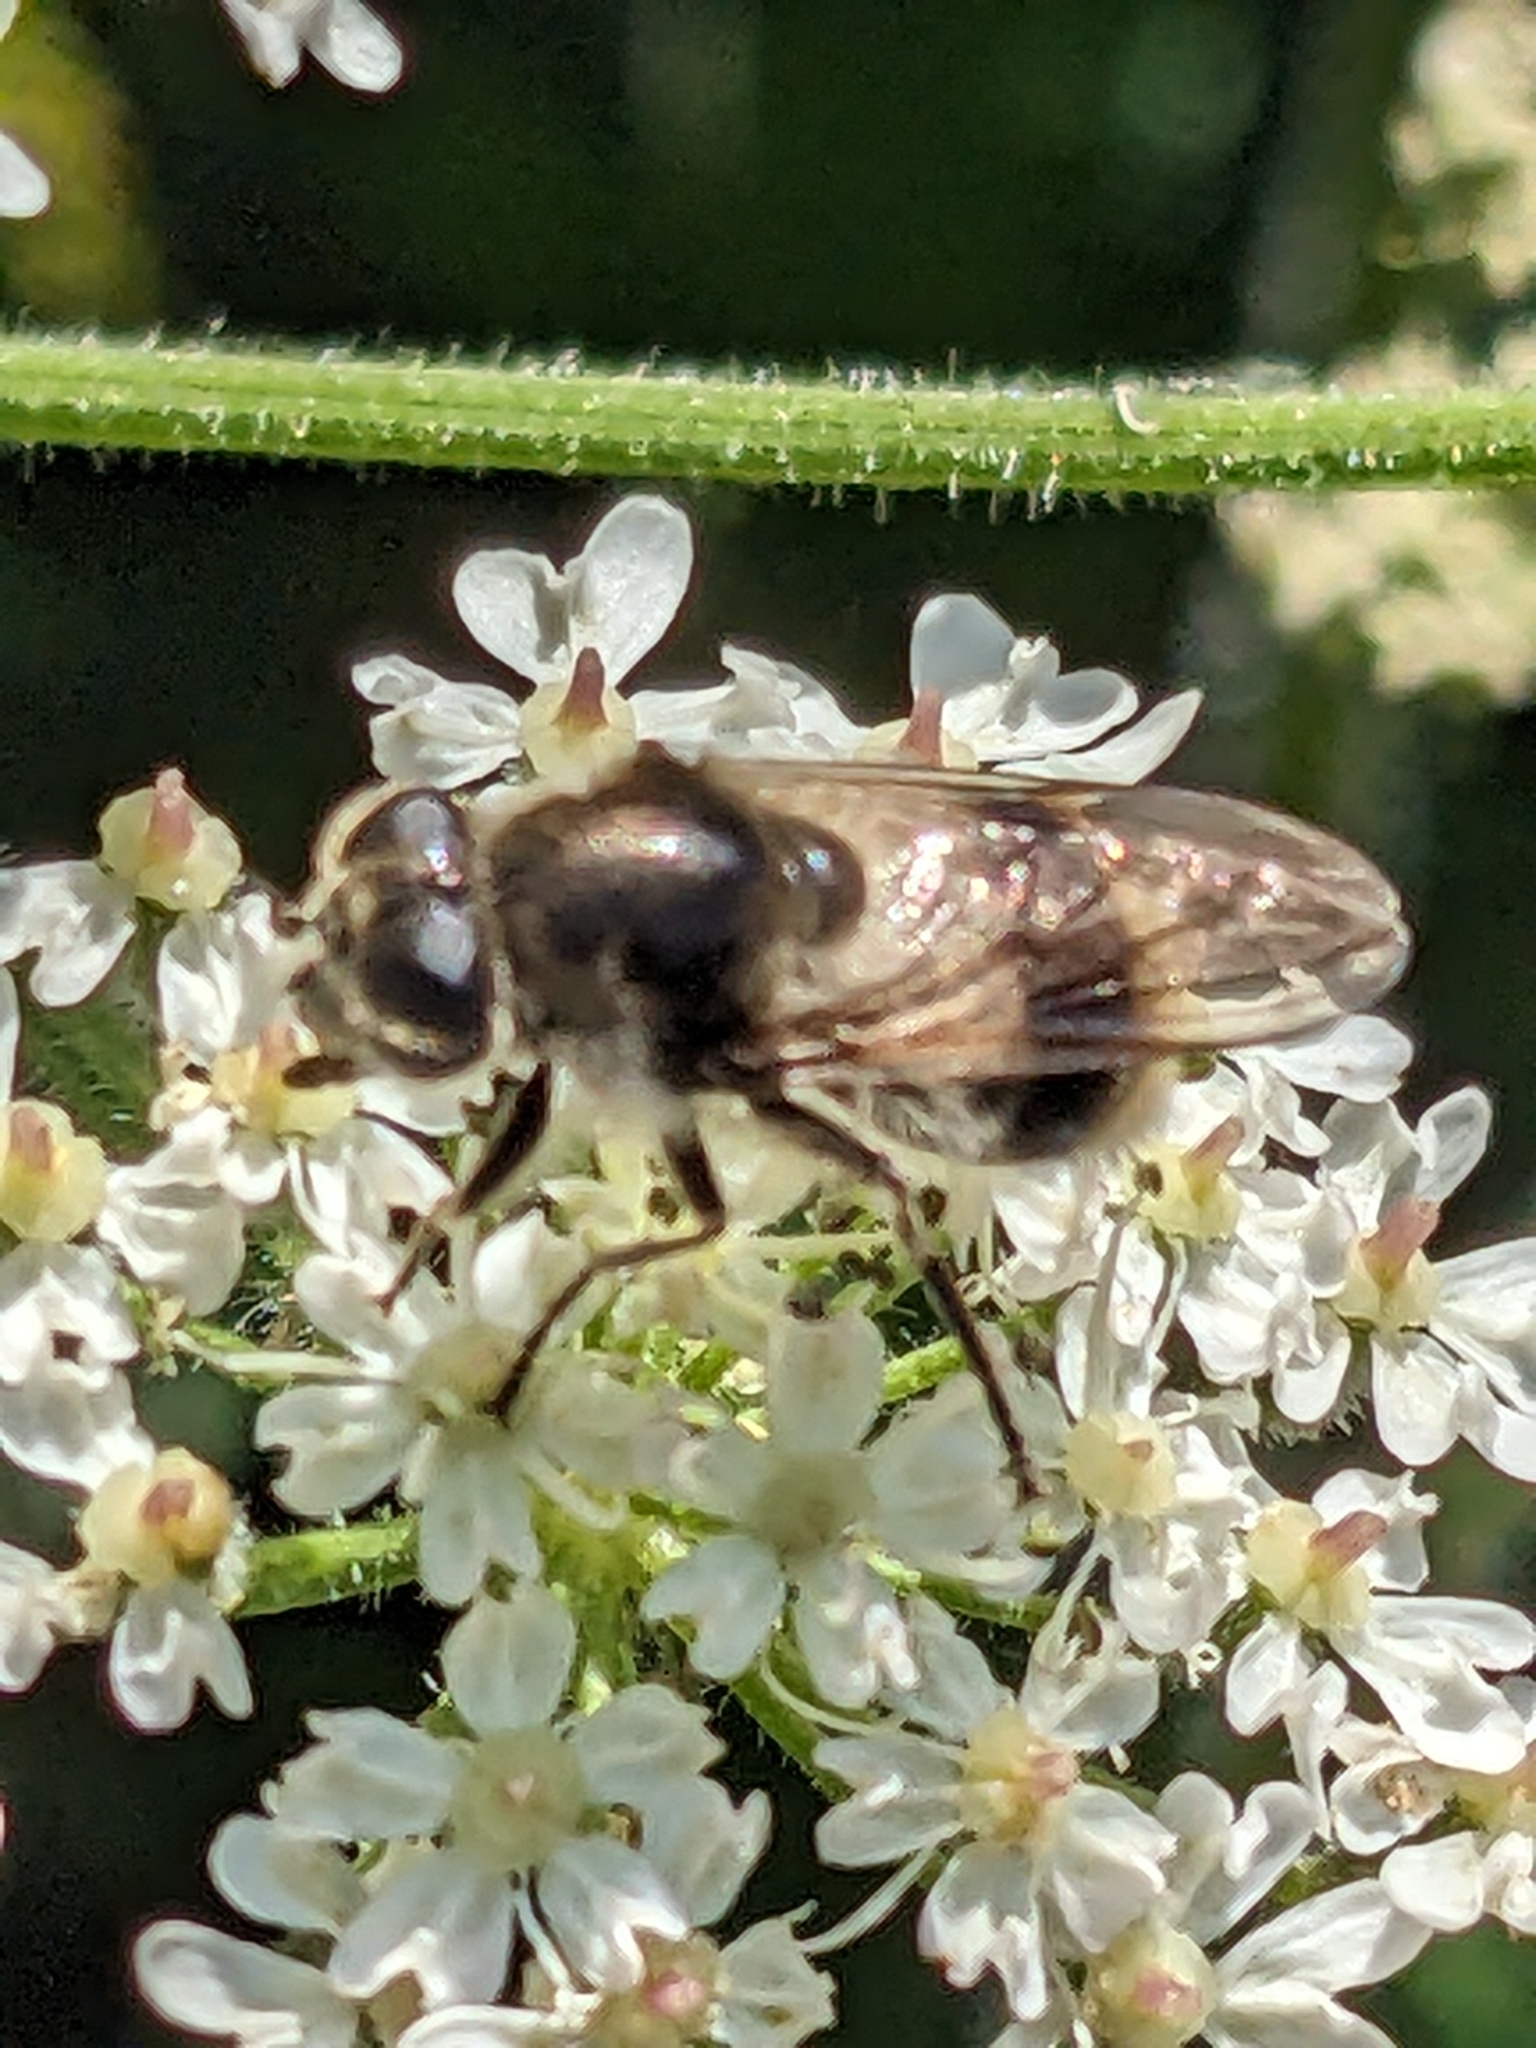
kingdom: Animalia
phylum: Arthropoda
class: Insecta
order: Diptera
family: Syrphidae
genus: Cheilosia
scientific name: Cheilosia illustrata
